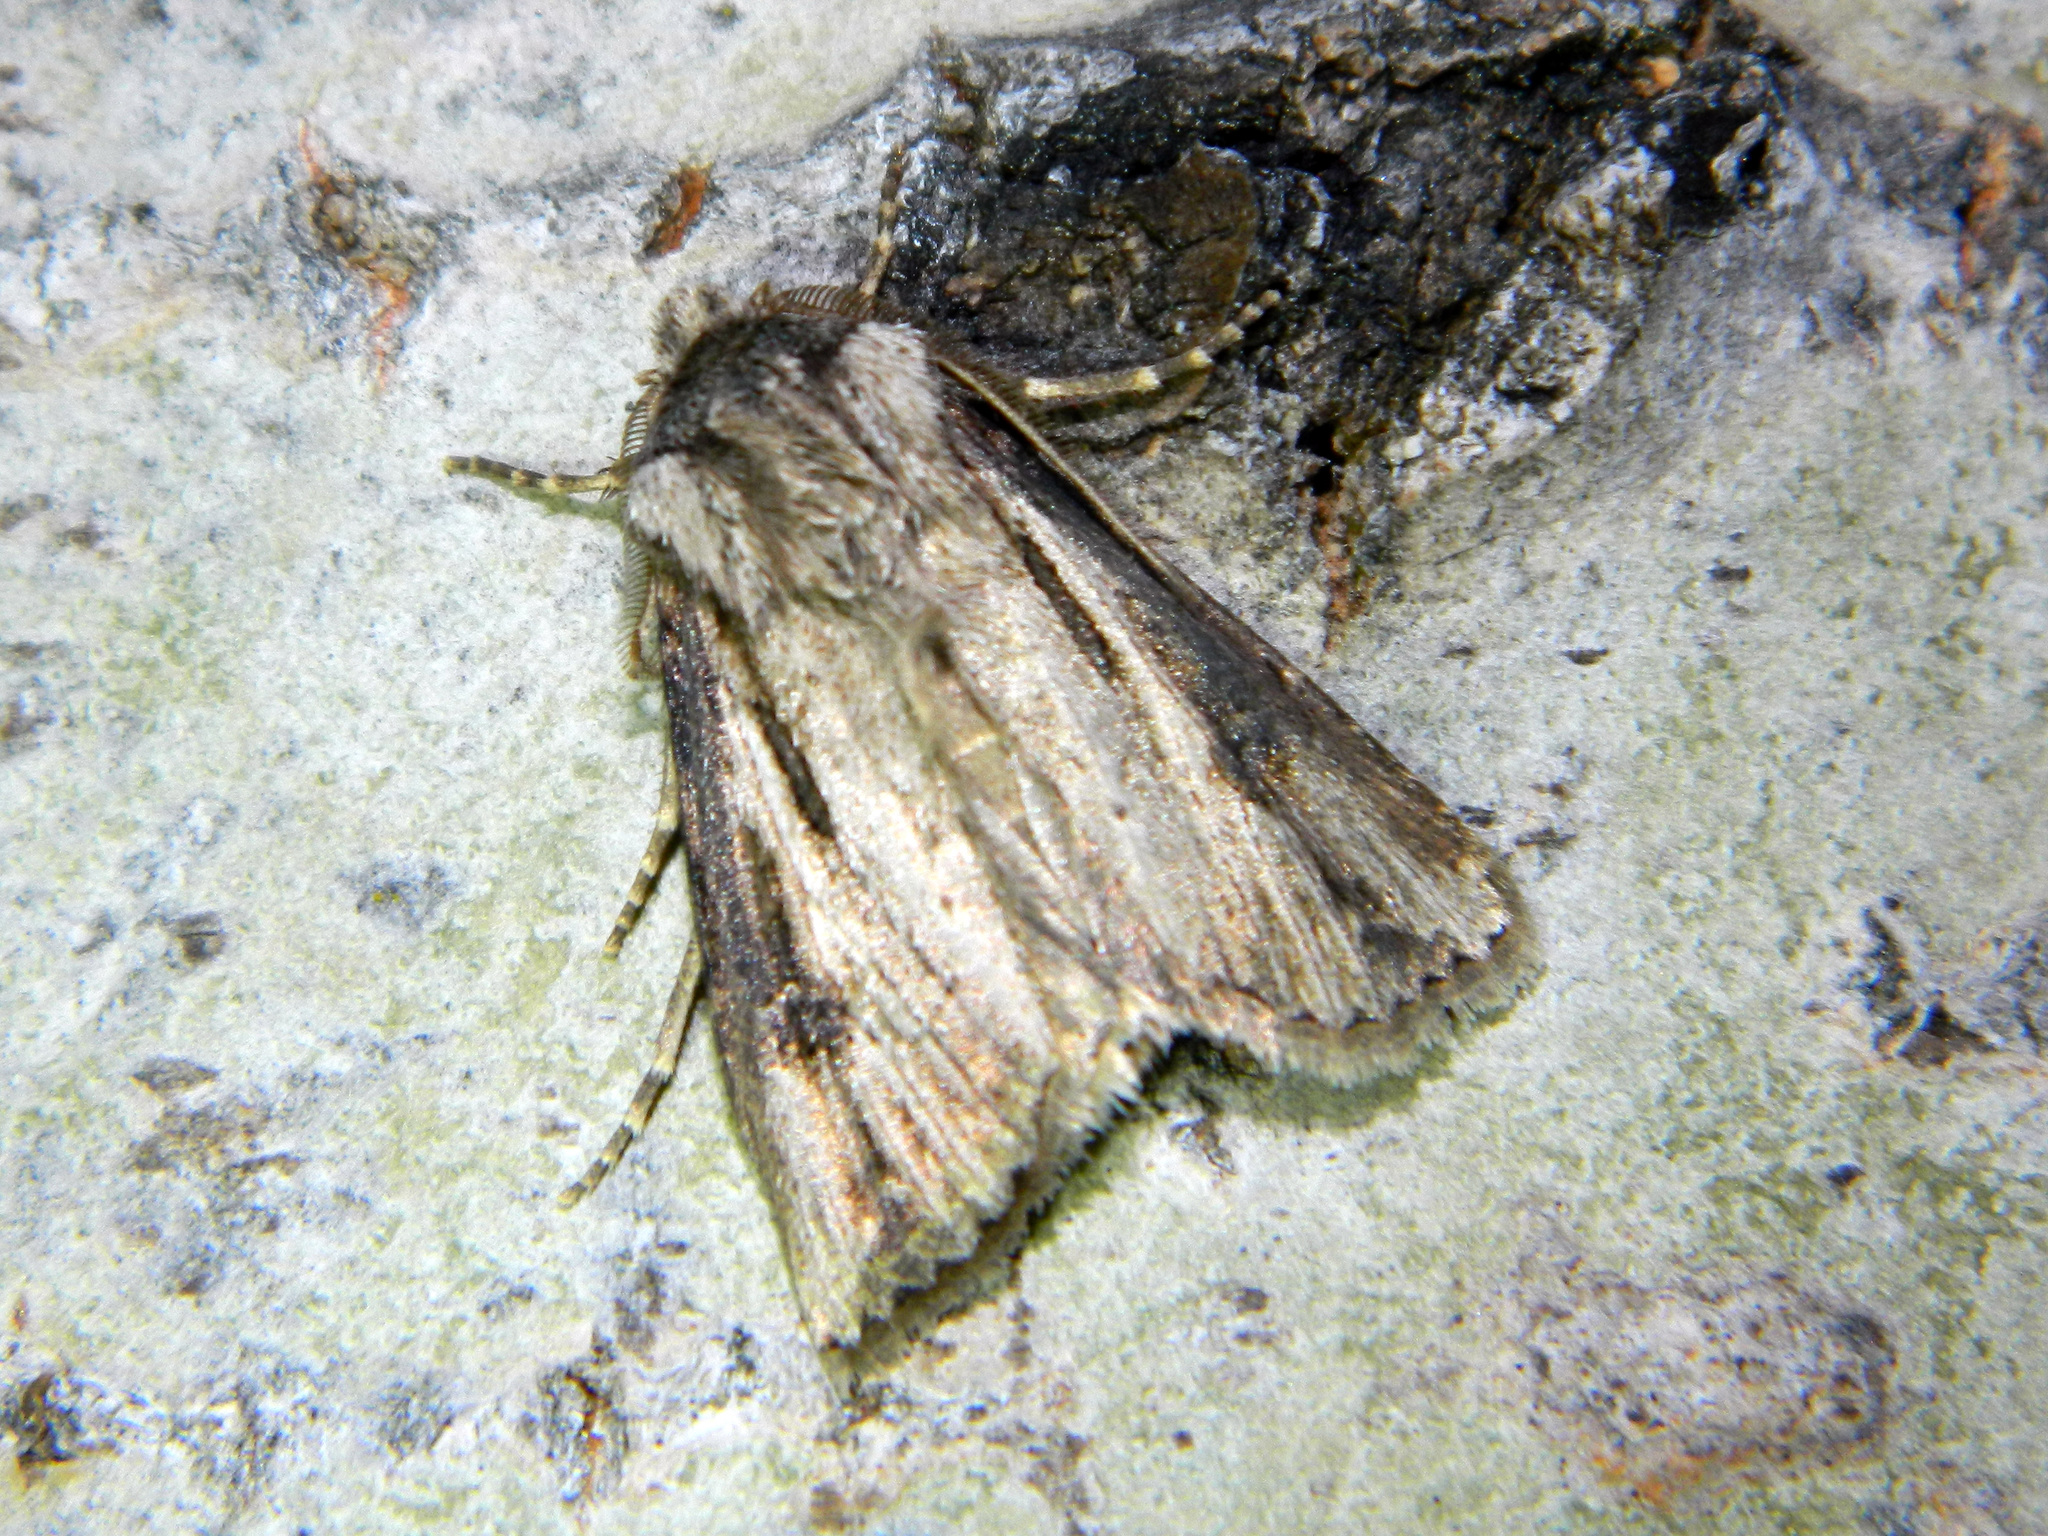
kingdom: Animalia
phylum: Arthropoda
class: Insecta
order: Lepidoptera
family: Noctuidae
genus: Agrotis
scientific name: Agrotis venerabilis
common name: Venerable dart
